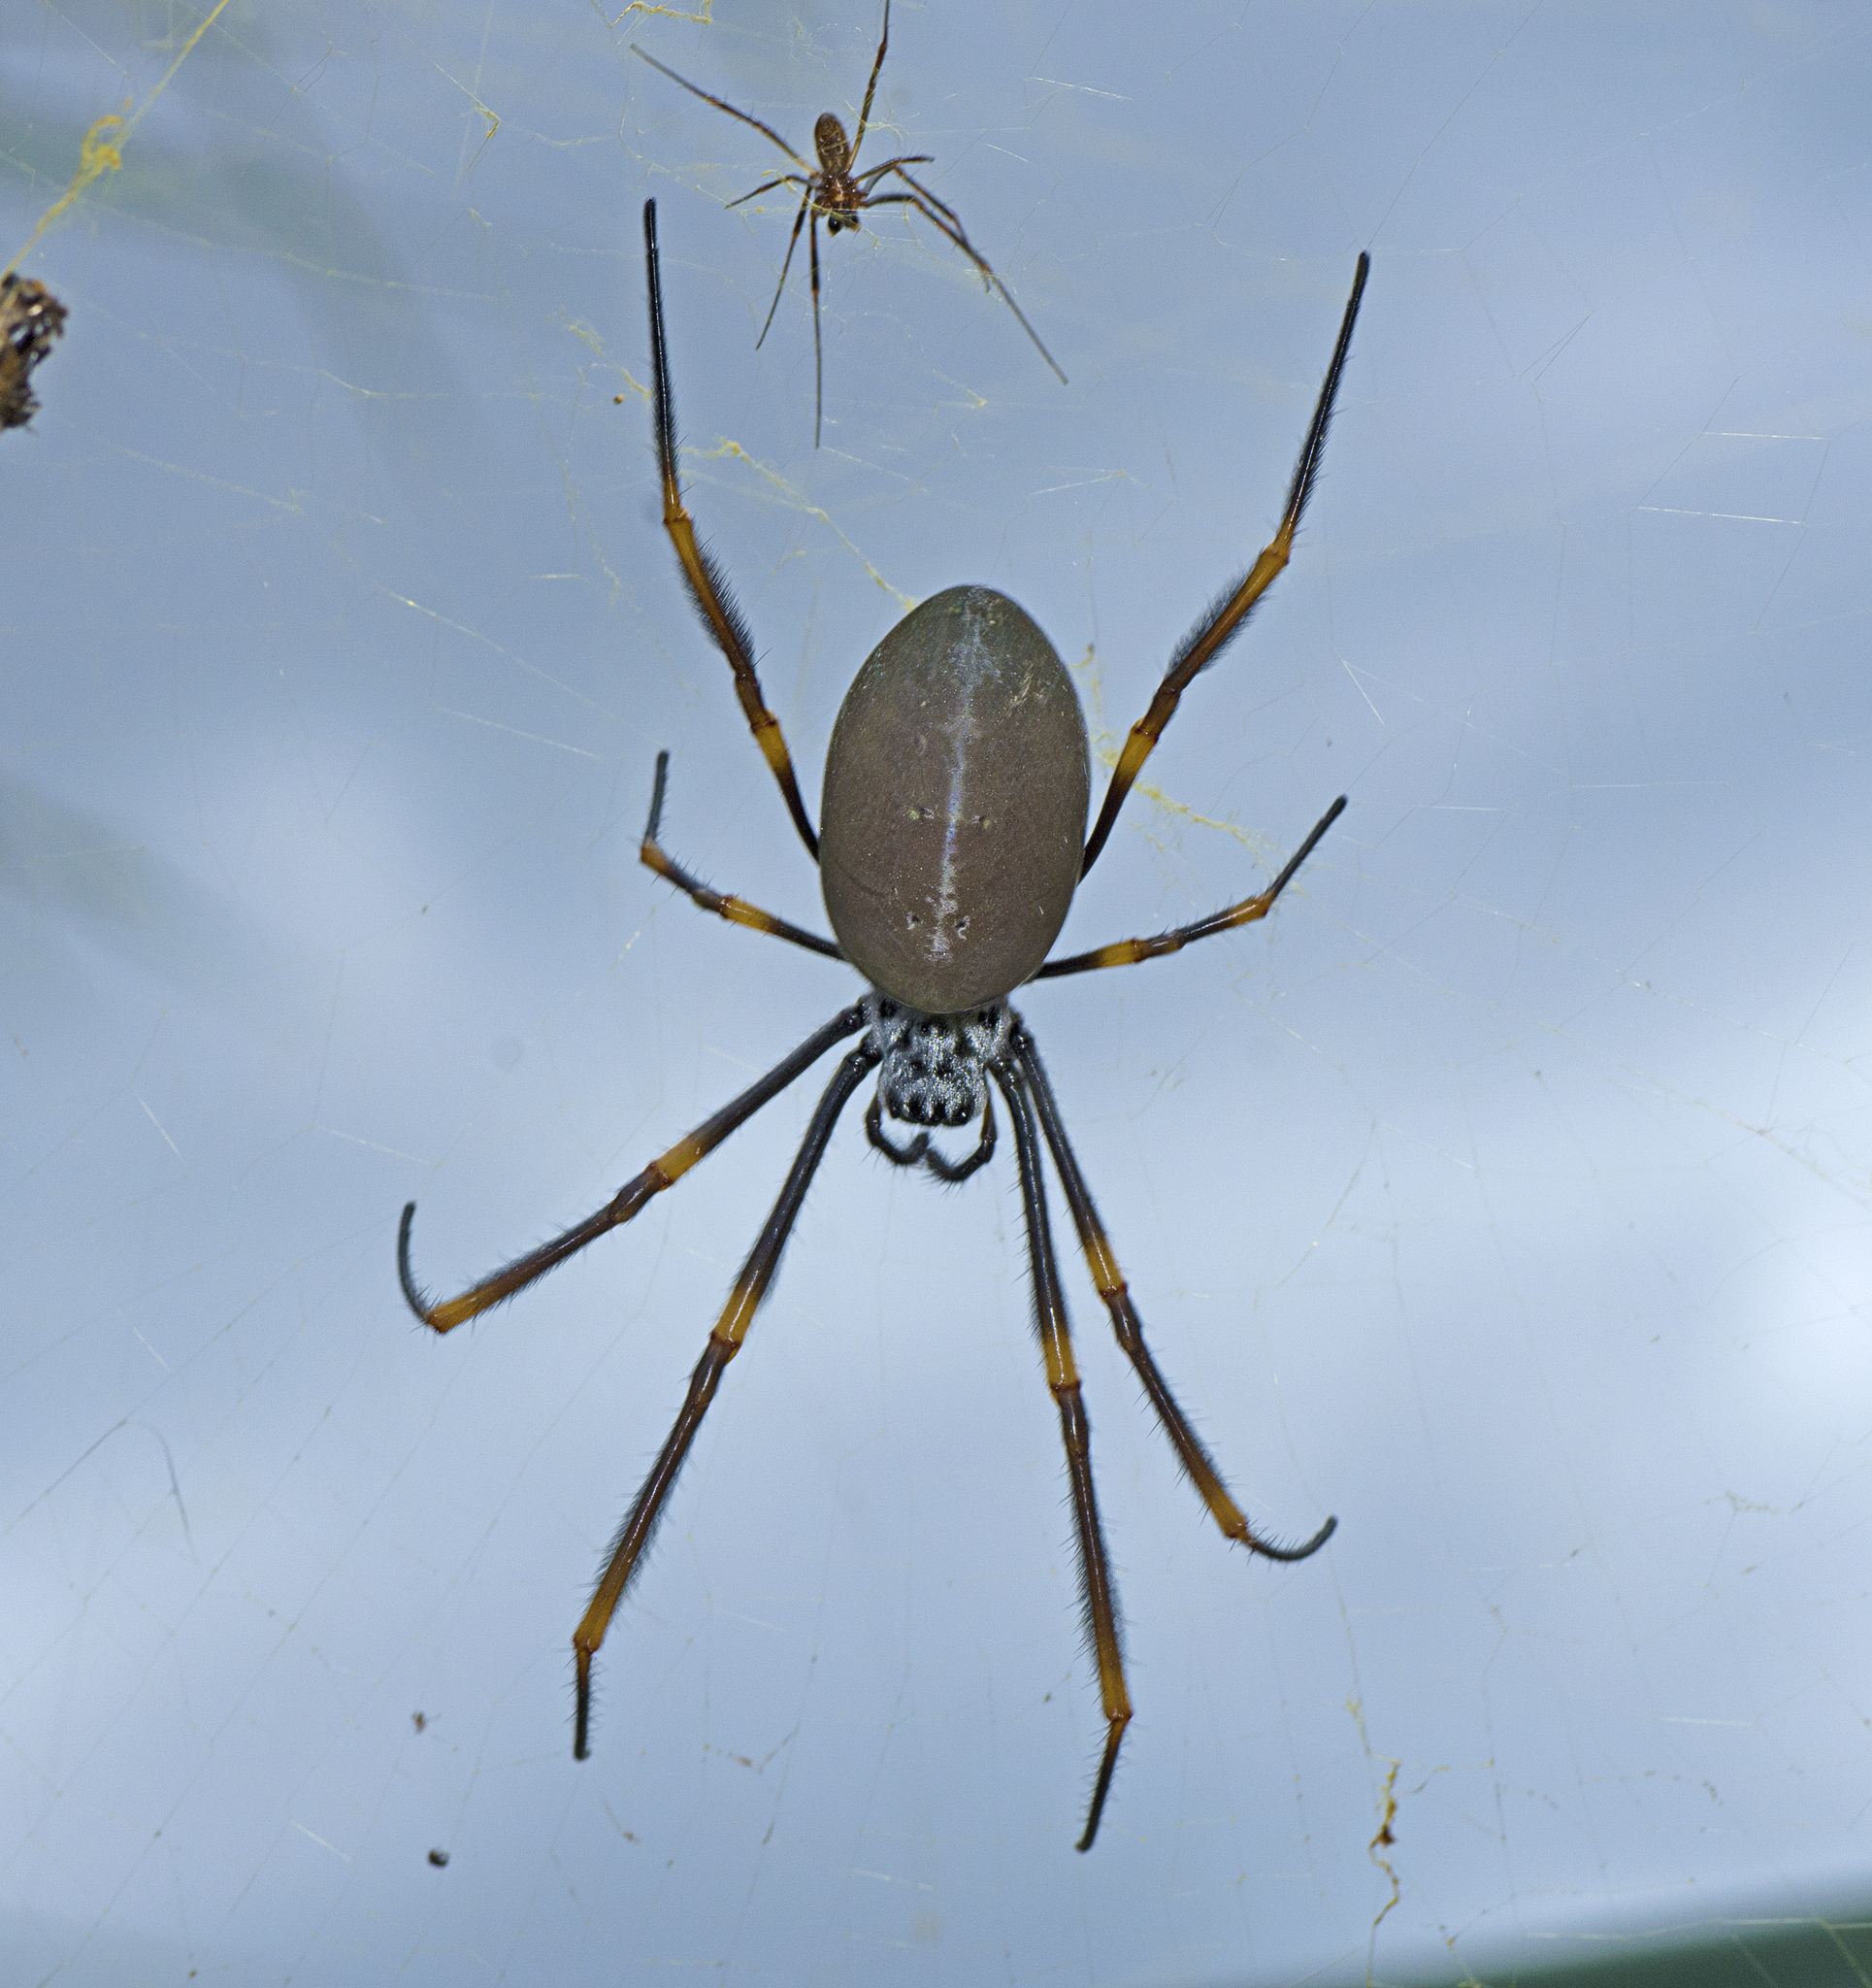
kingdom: Animalia
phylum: Arthropoda
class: Arachnida
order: Araneae
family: Araneidae
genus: Trichonephila
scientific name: Trichonephila plumipes
